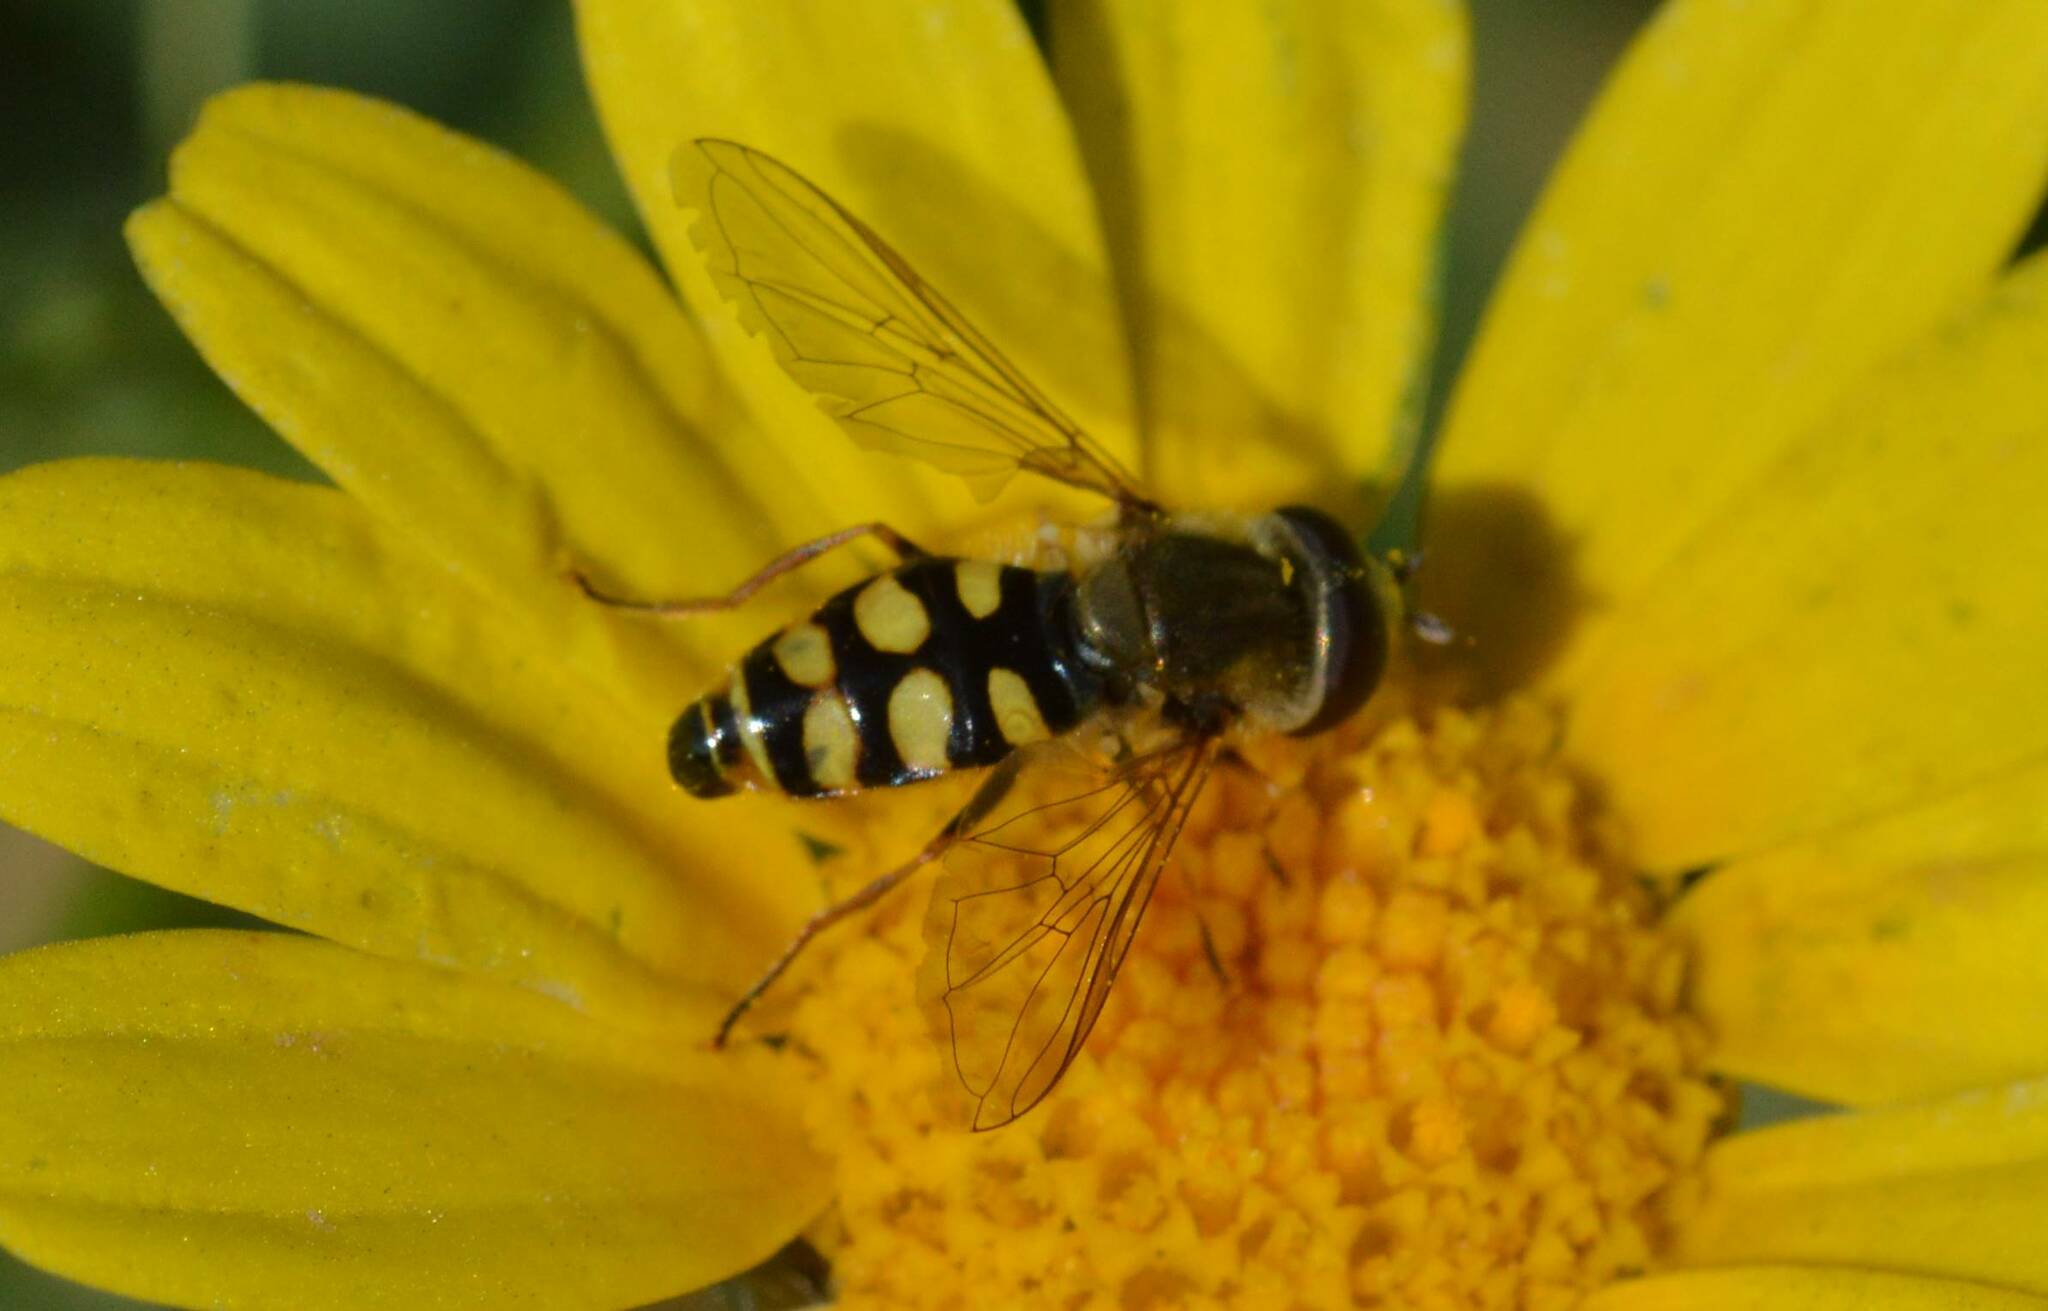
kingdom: Animalia
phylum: Arthropoda
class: Insecta
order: Diptera
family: Syrphidae
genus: Eupeodes
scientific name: Eupeodes corollae
